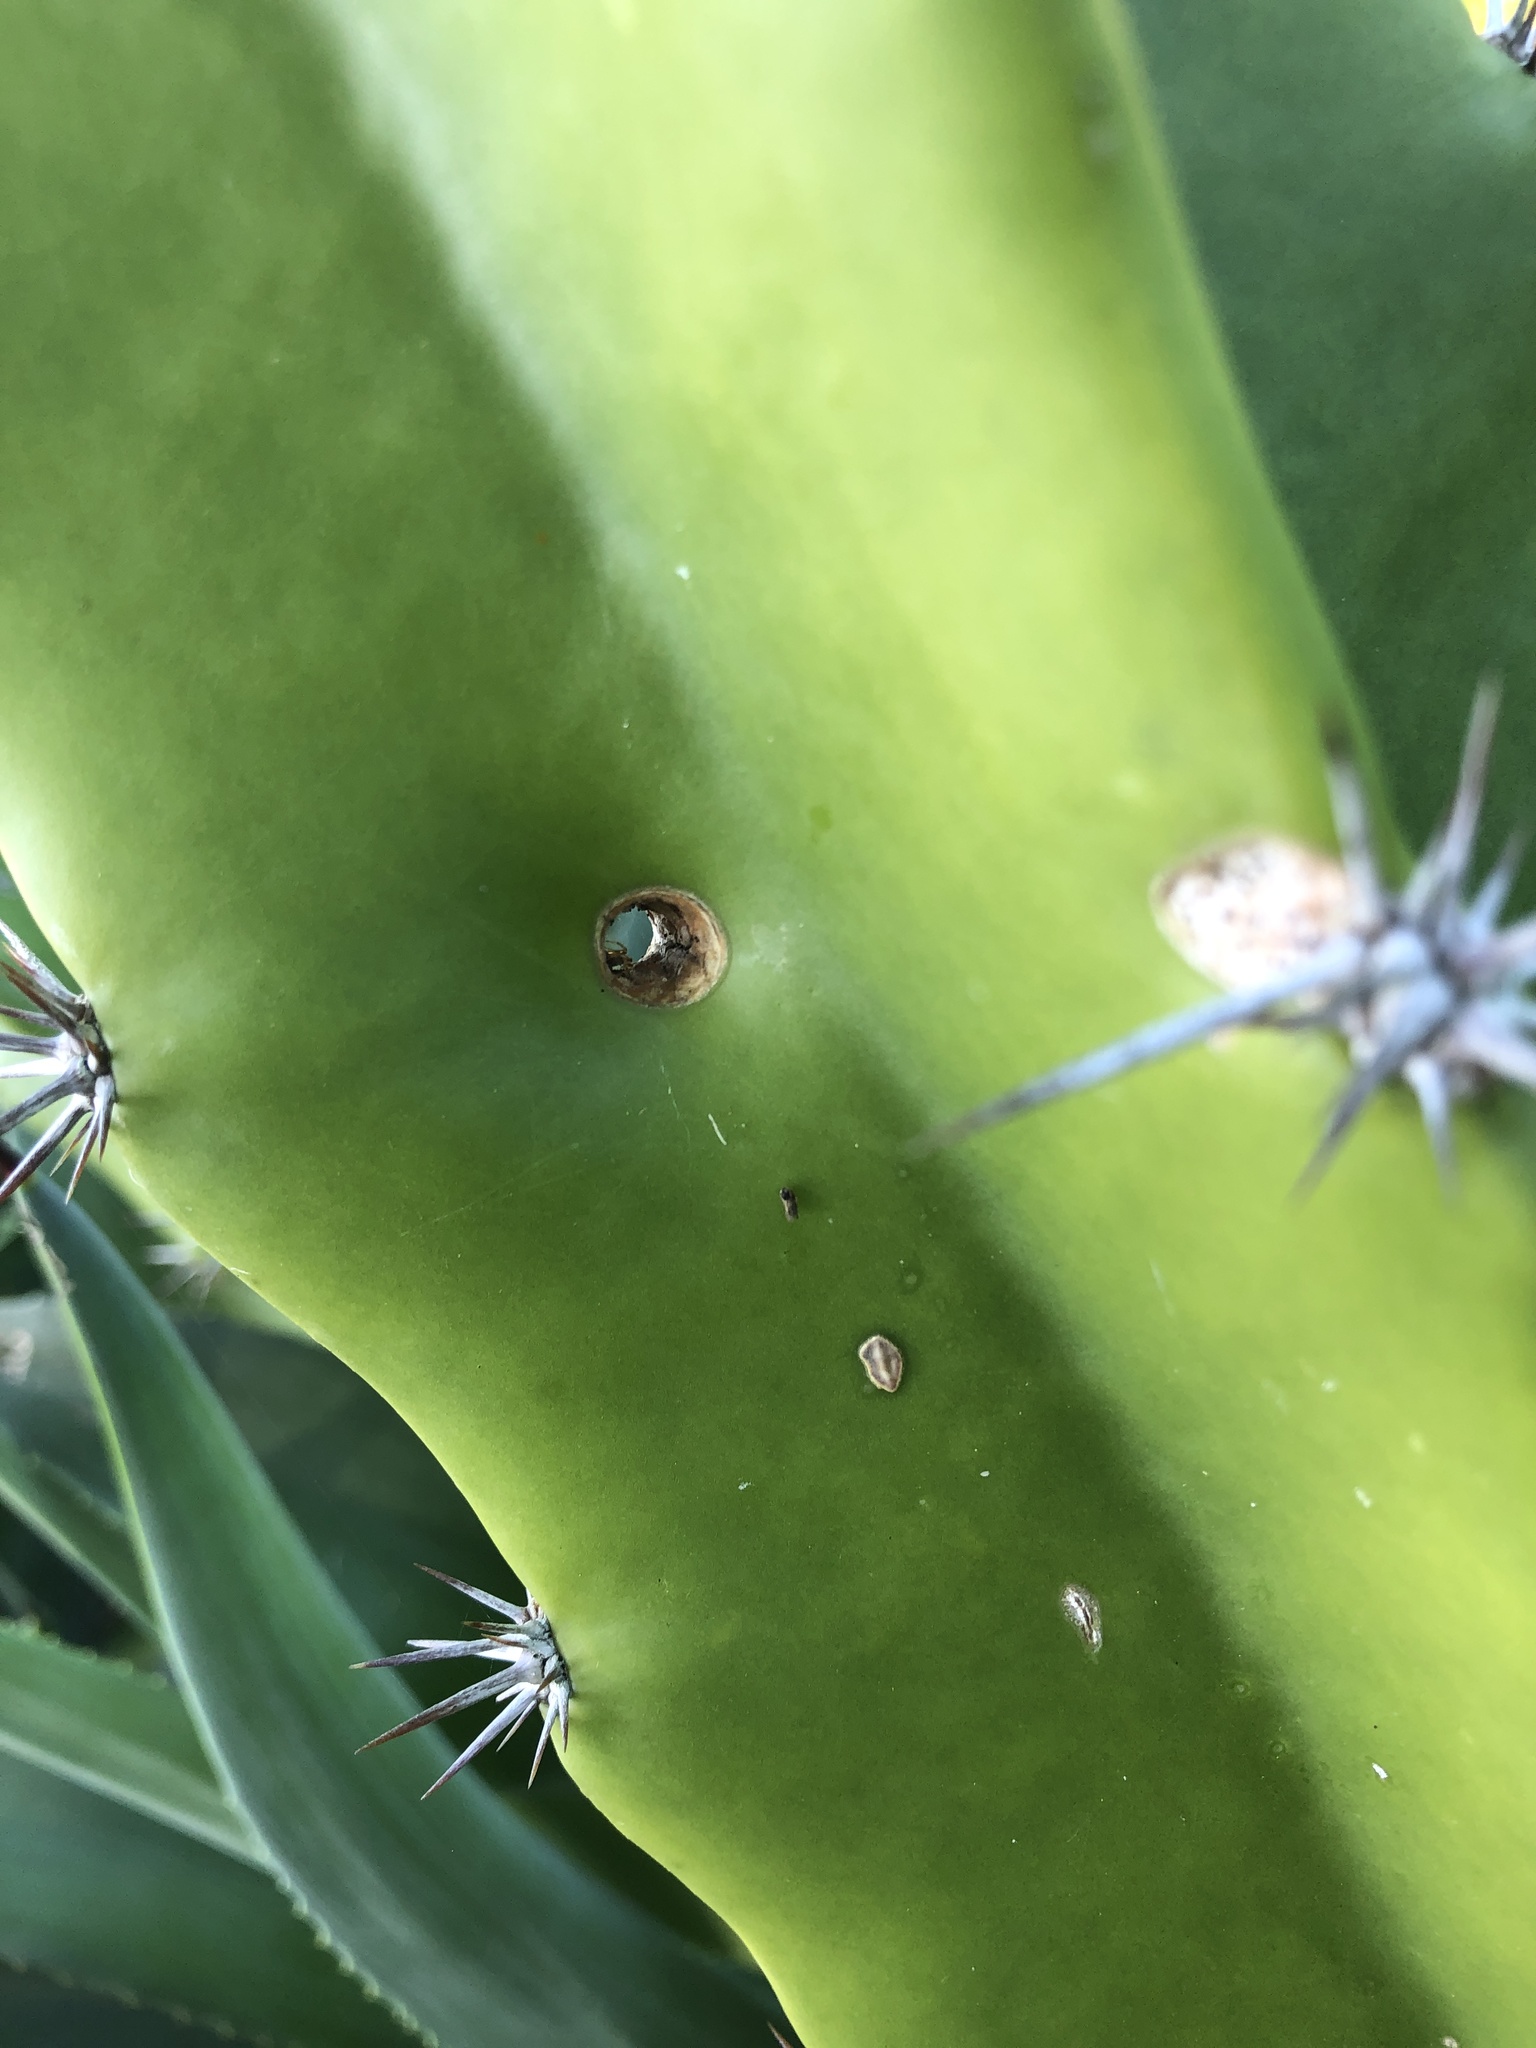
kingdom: Plantae
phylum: Tracheophyta
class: Magnoliopsida
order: Caryophyllales
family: Cactaceae
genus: Acanthocereus
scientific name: Acanthocereus tetragonus
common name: Triangle cactus
